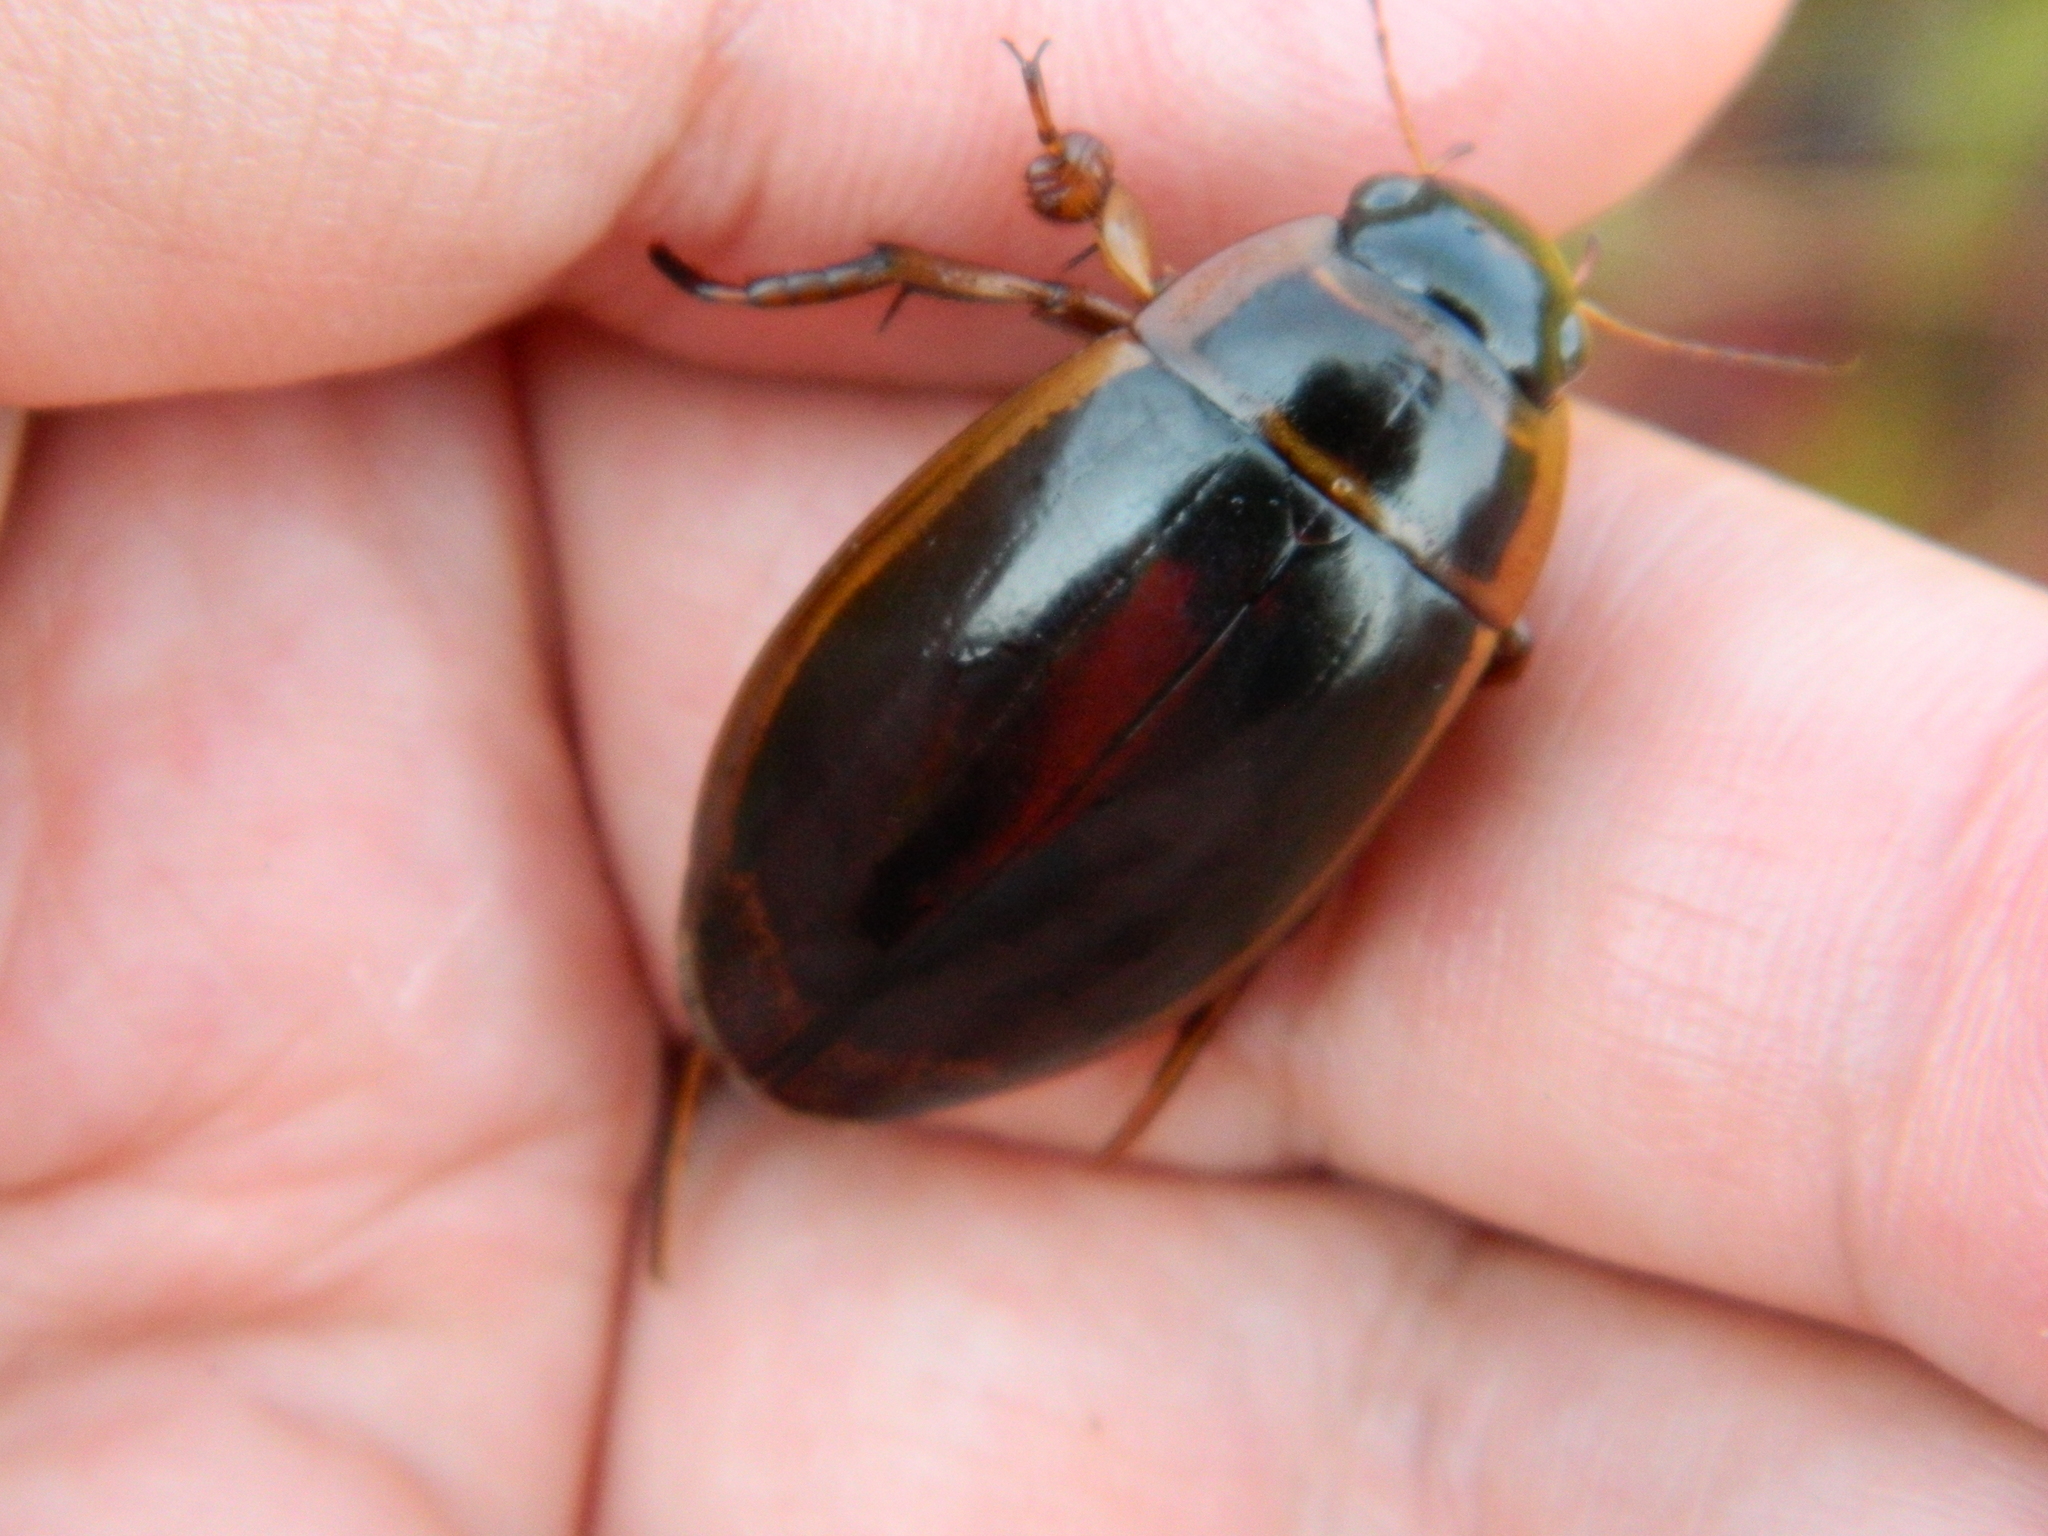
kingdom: Animalia
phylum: Arthropoda
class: Insecta
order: Coleoptera
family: Dytiscidae
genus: Dytiscus
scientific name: Dytiscus dauricus
